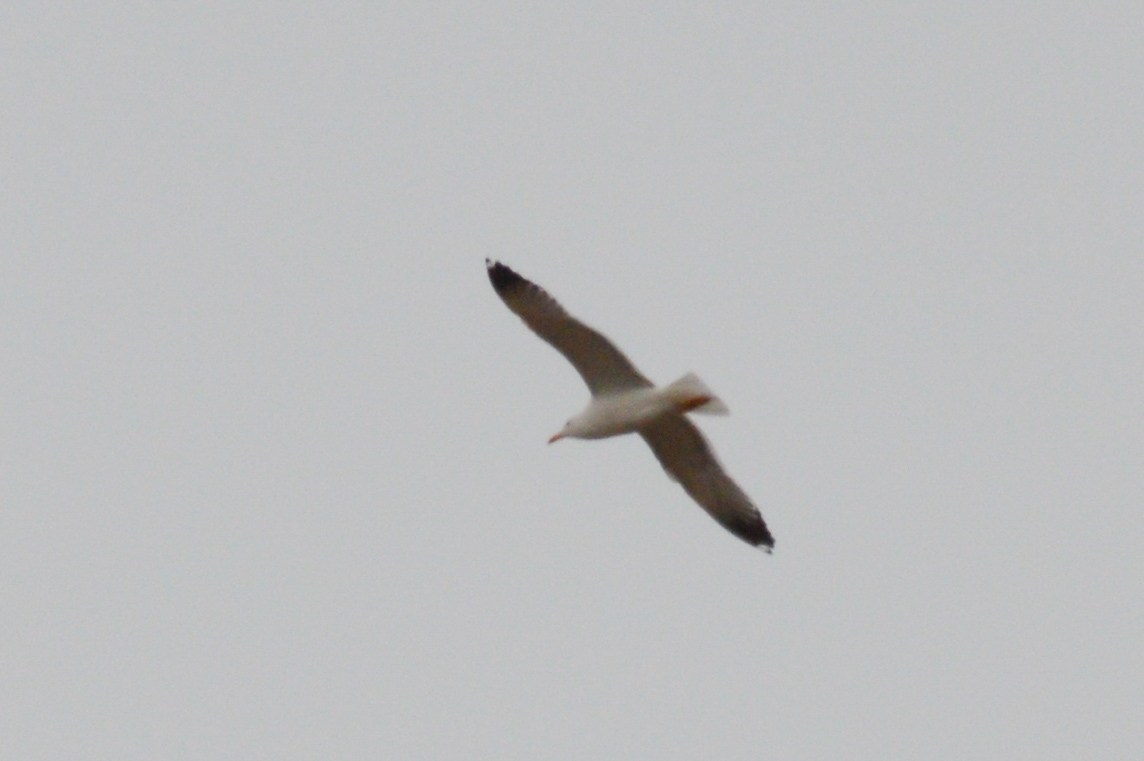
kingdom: Animalia
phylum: Chordata
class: Aves
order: Charadriiformes
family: Laridae
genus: Larus
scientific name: Larus fuscus
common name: Lesser black-backed gull
